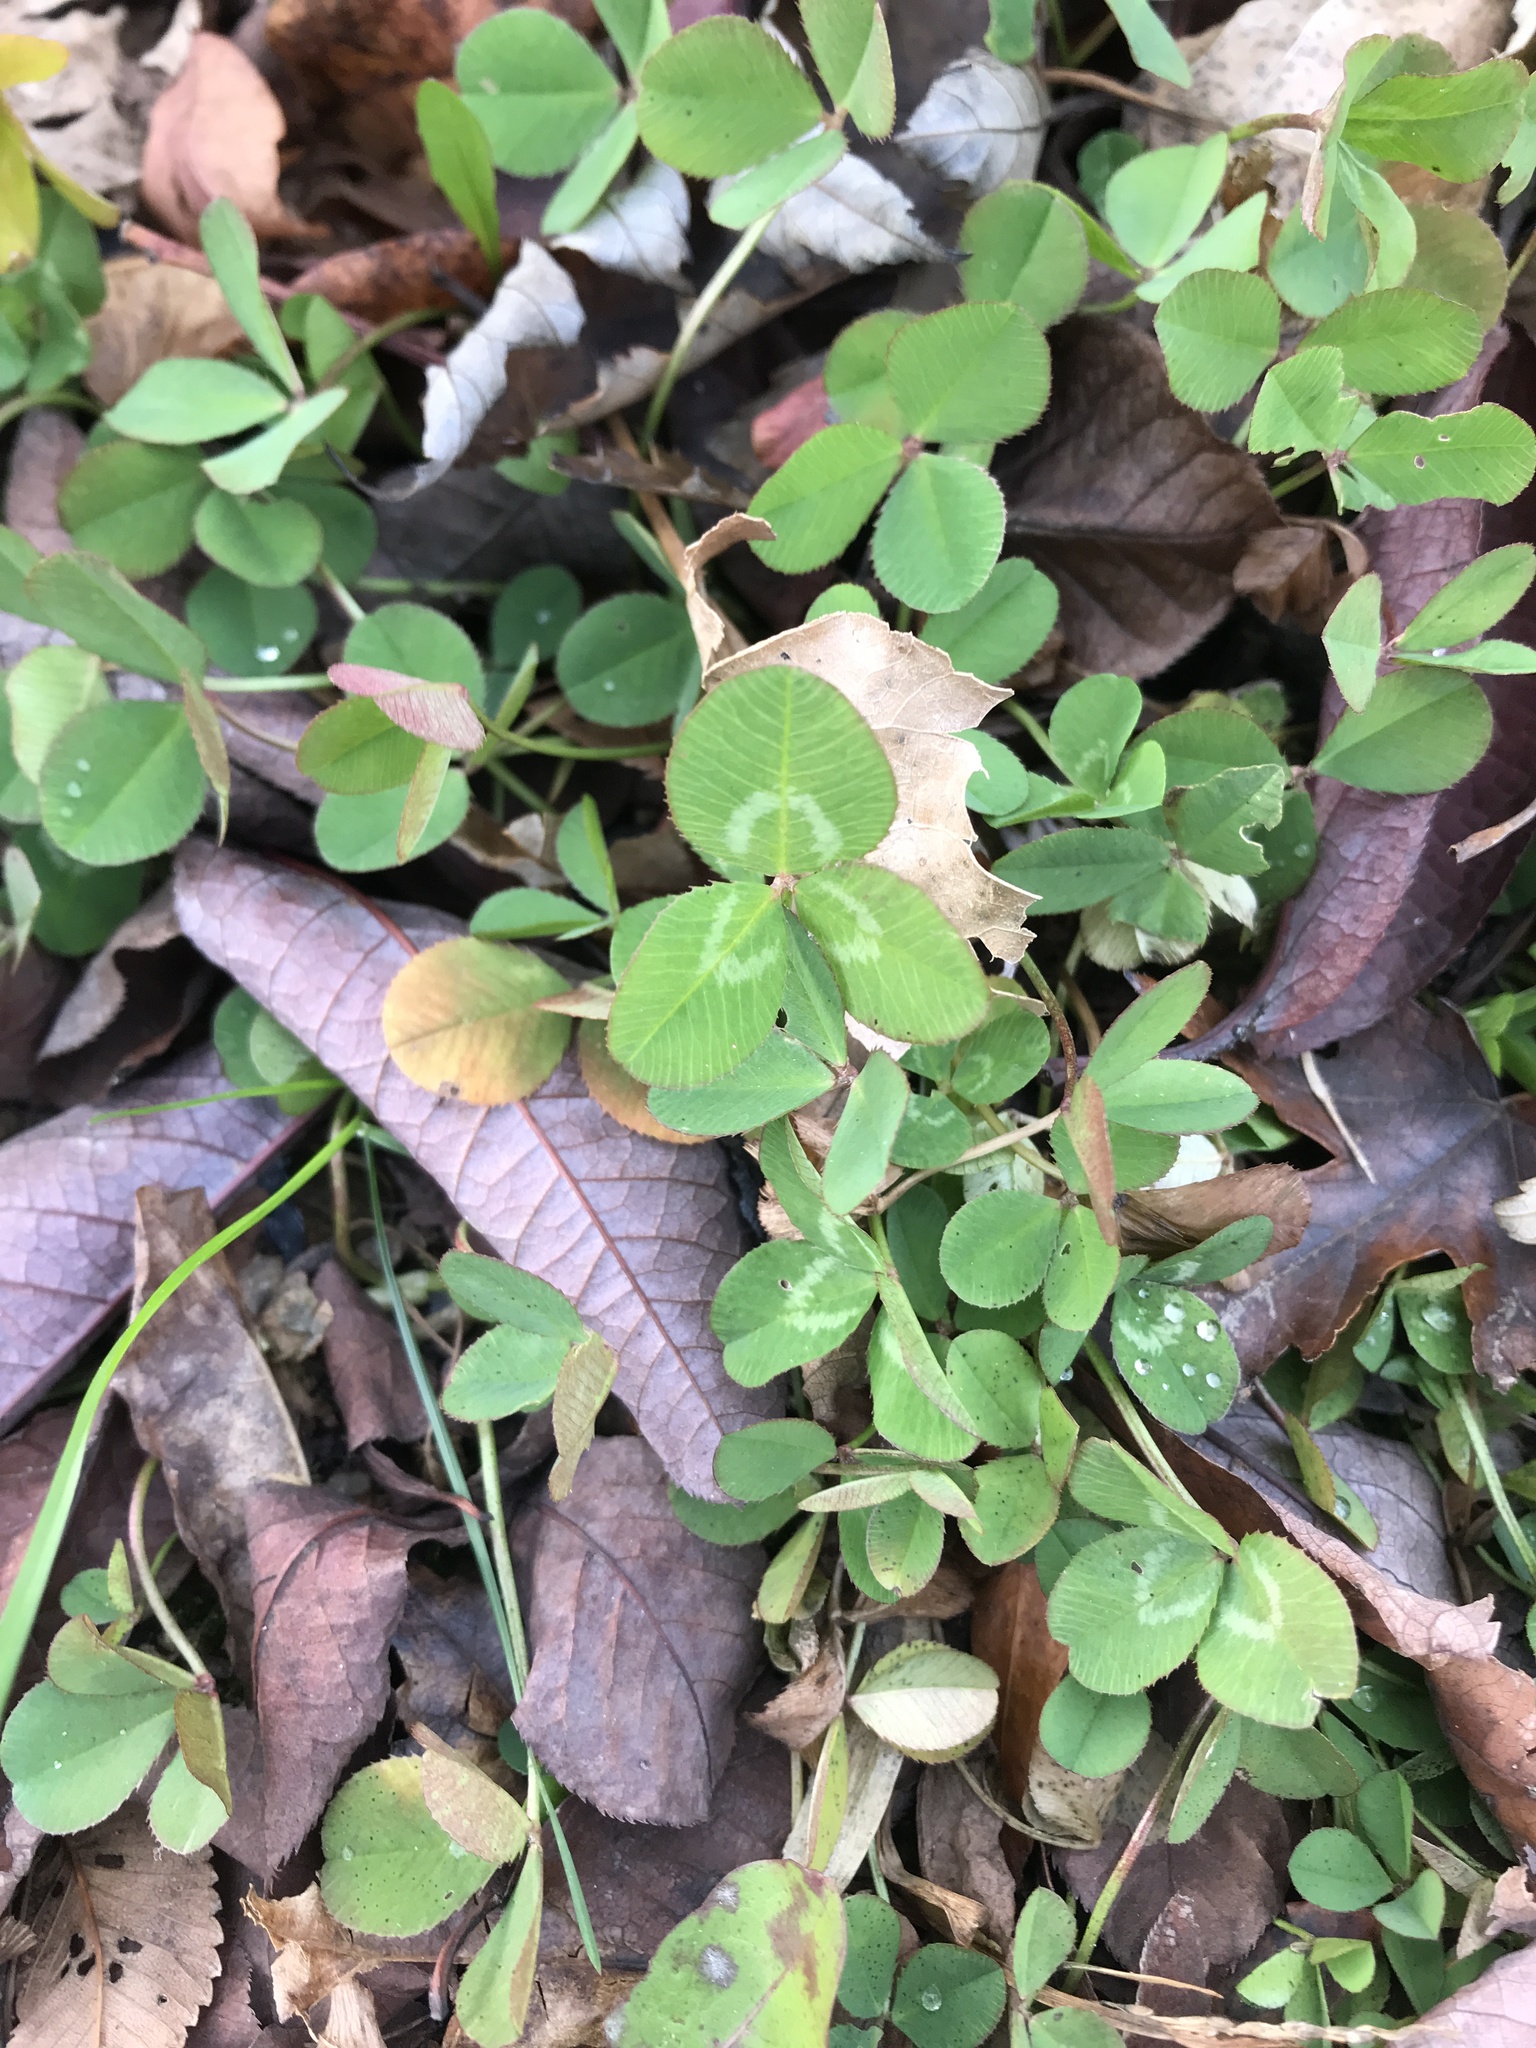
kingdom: Plantae
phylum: Tracheophyta
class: Magnoliopsida
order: Fabales
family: Fabaceae
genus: Trifolium
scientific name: Trifolium repens
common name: White clover
